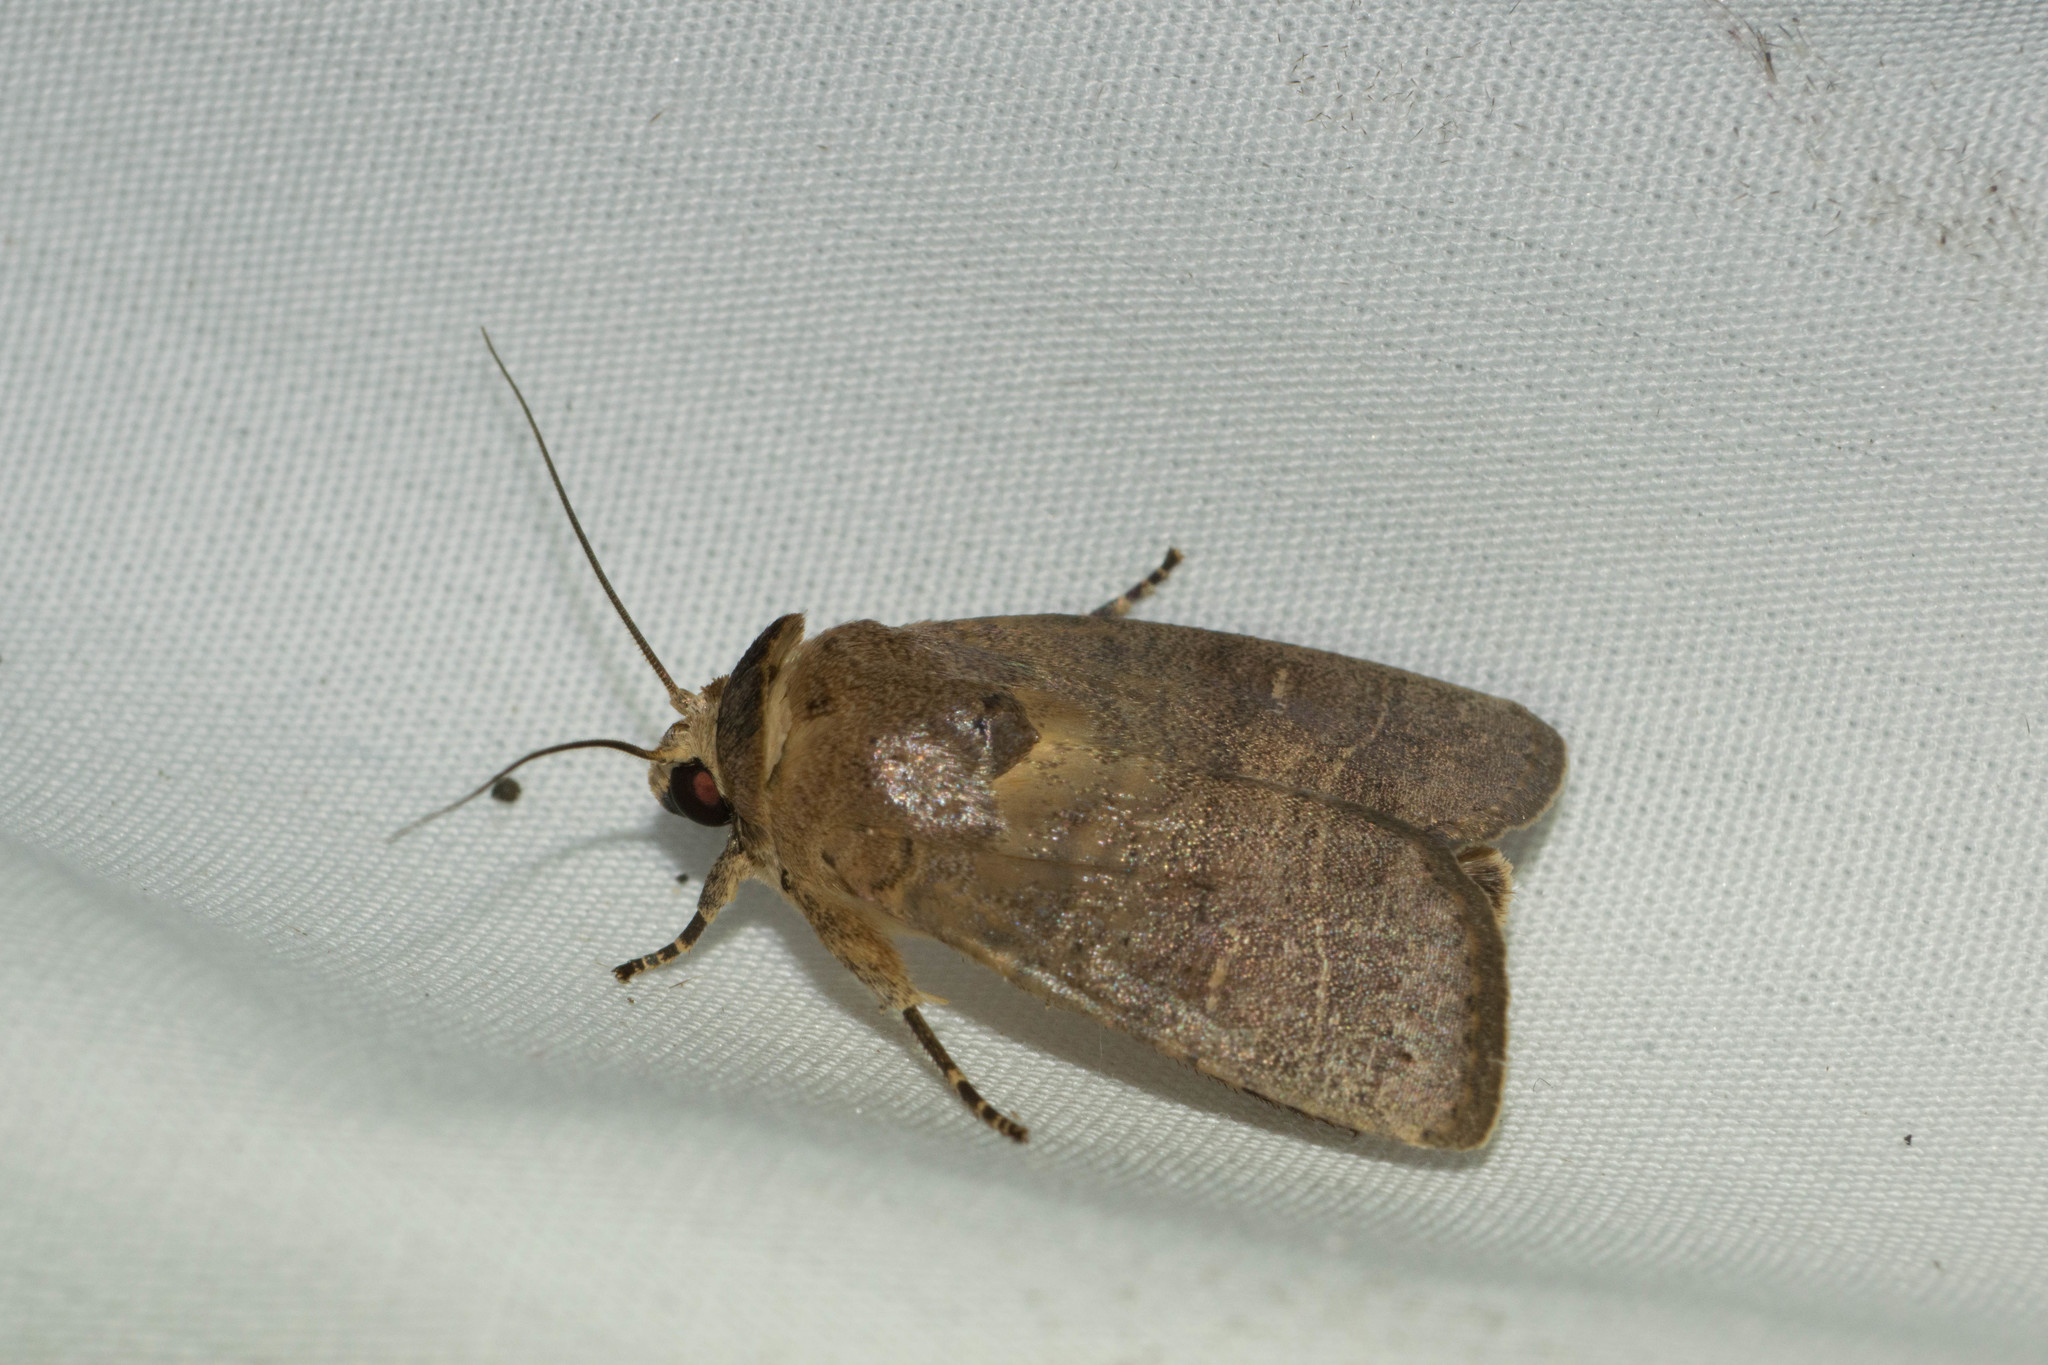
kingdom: Animalia
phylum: Arthropoda
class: Insecta
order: Lepidoptera
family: Noctuidae
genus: Athetis
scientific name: Athetis thoracica
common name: Cutworm
